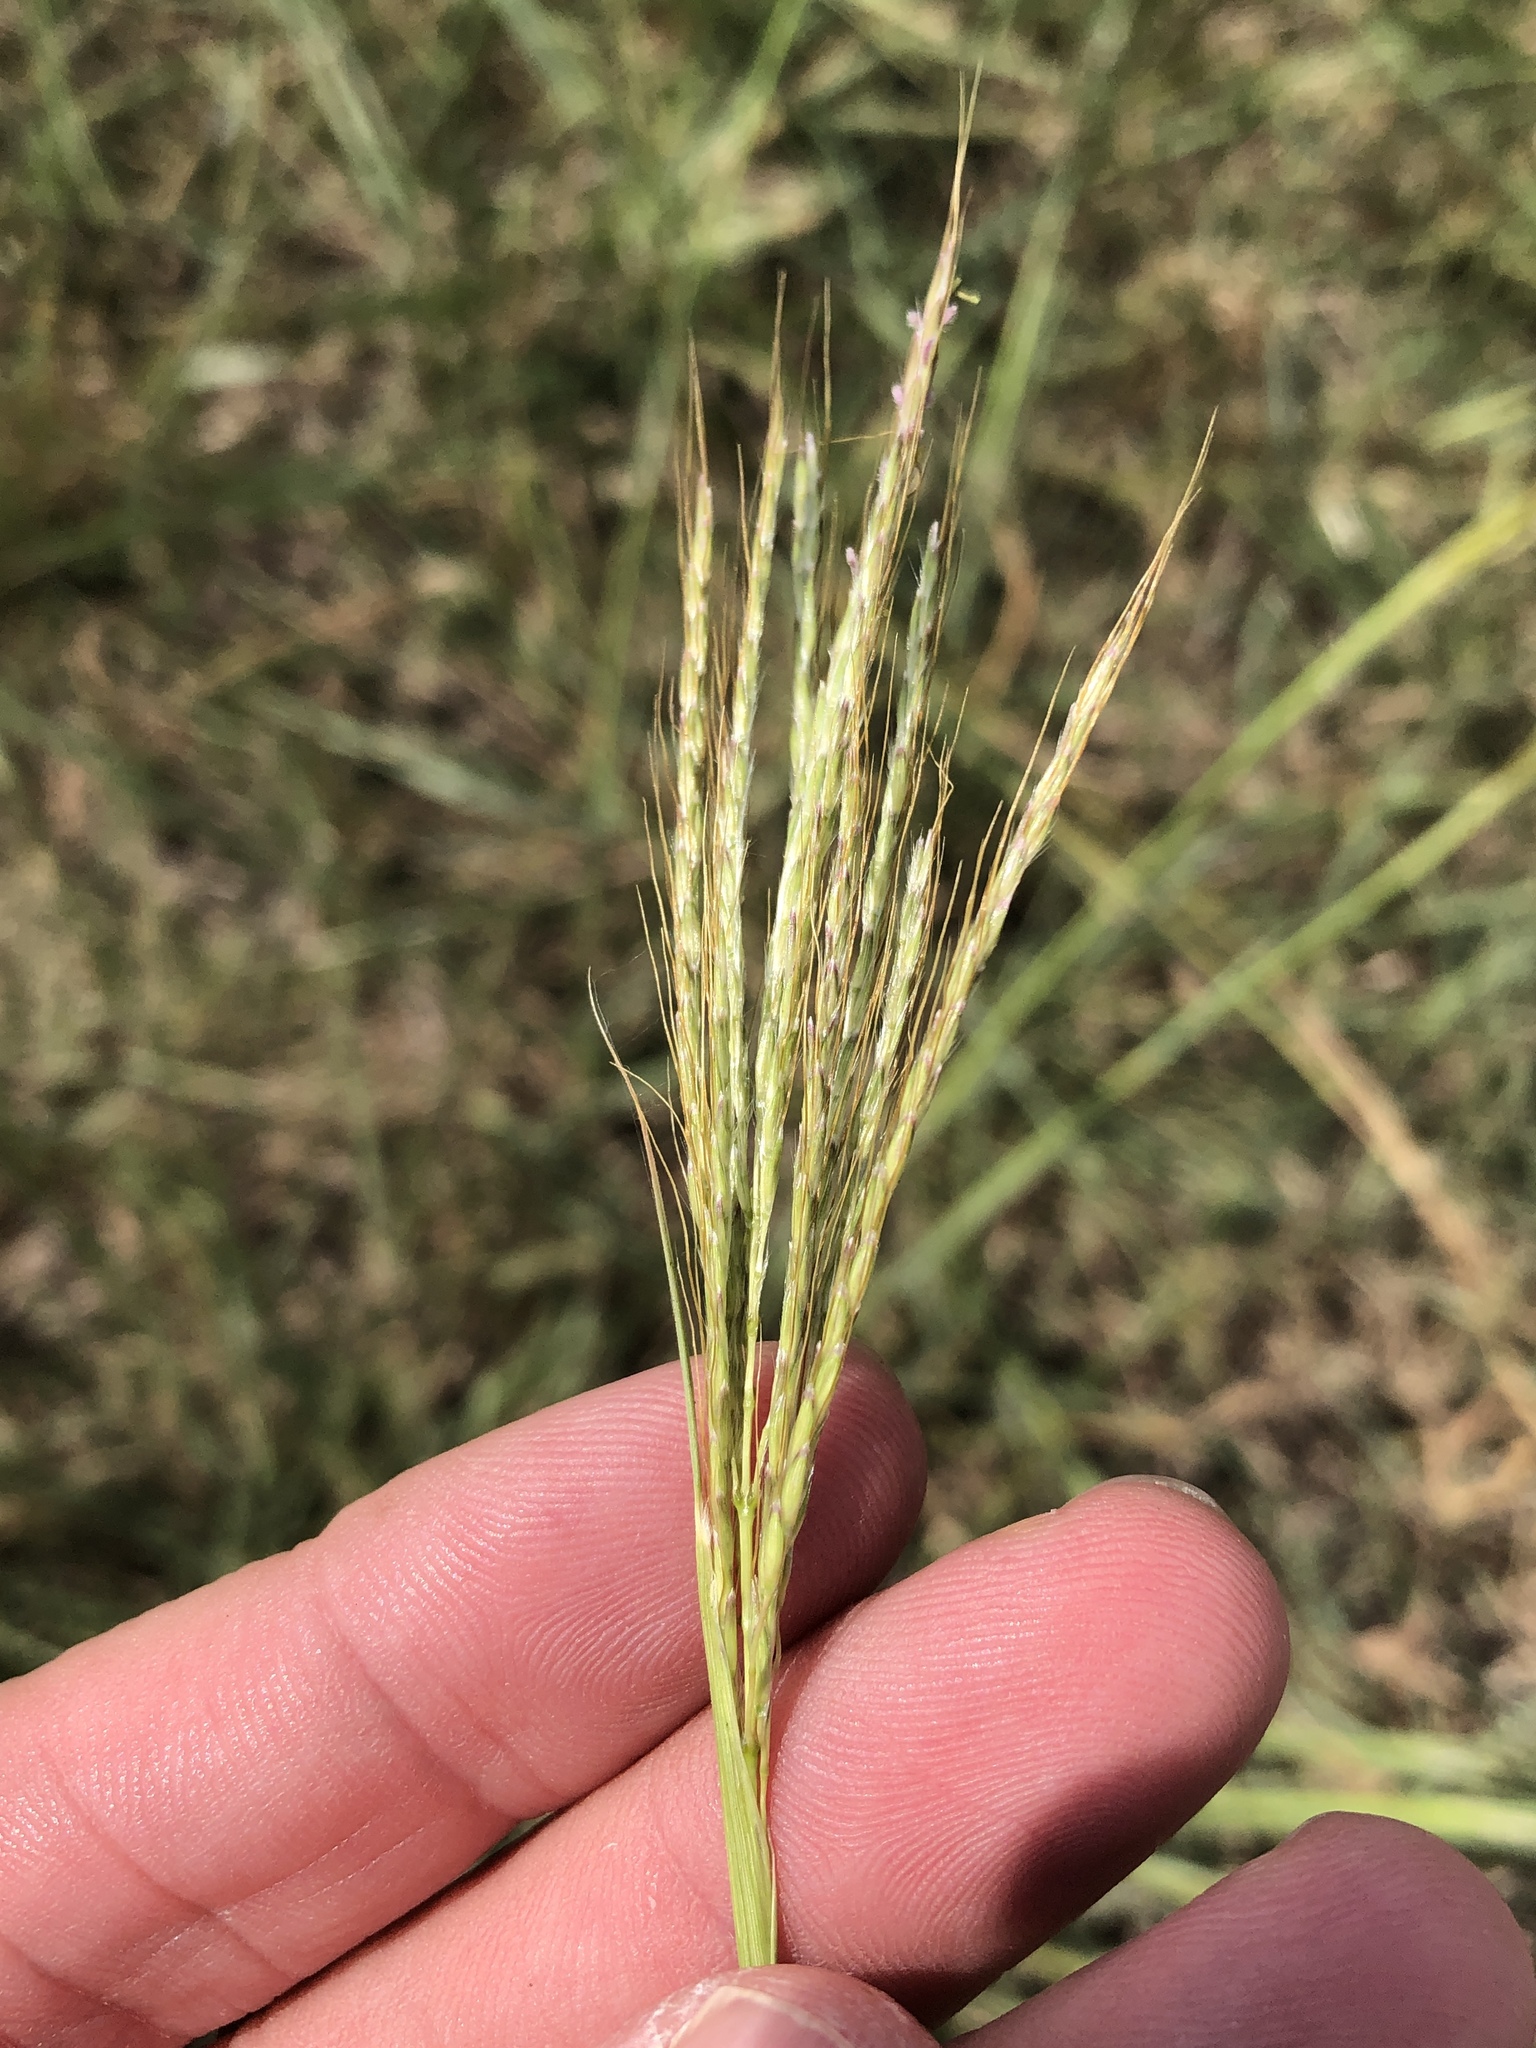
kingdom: Plantae
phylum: Tracheophyta
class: Liliopsida
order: Poales
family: Poaceae
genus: Bothriochloa
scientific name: Bothriochloa ischaemum
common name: Yellow bluestem
